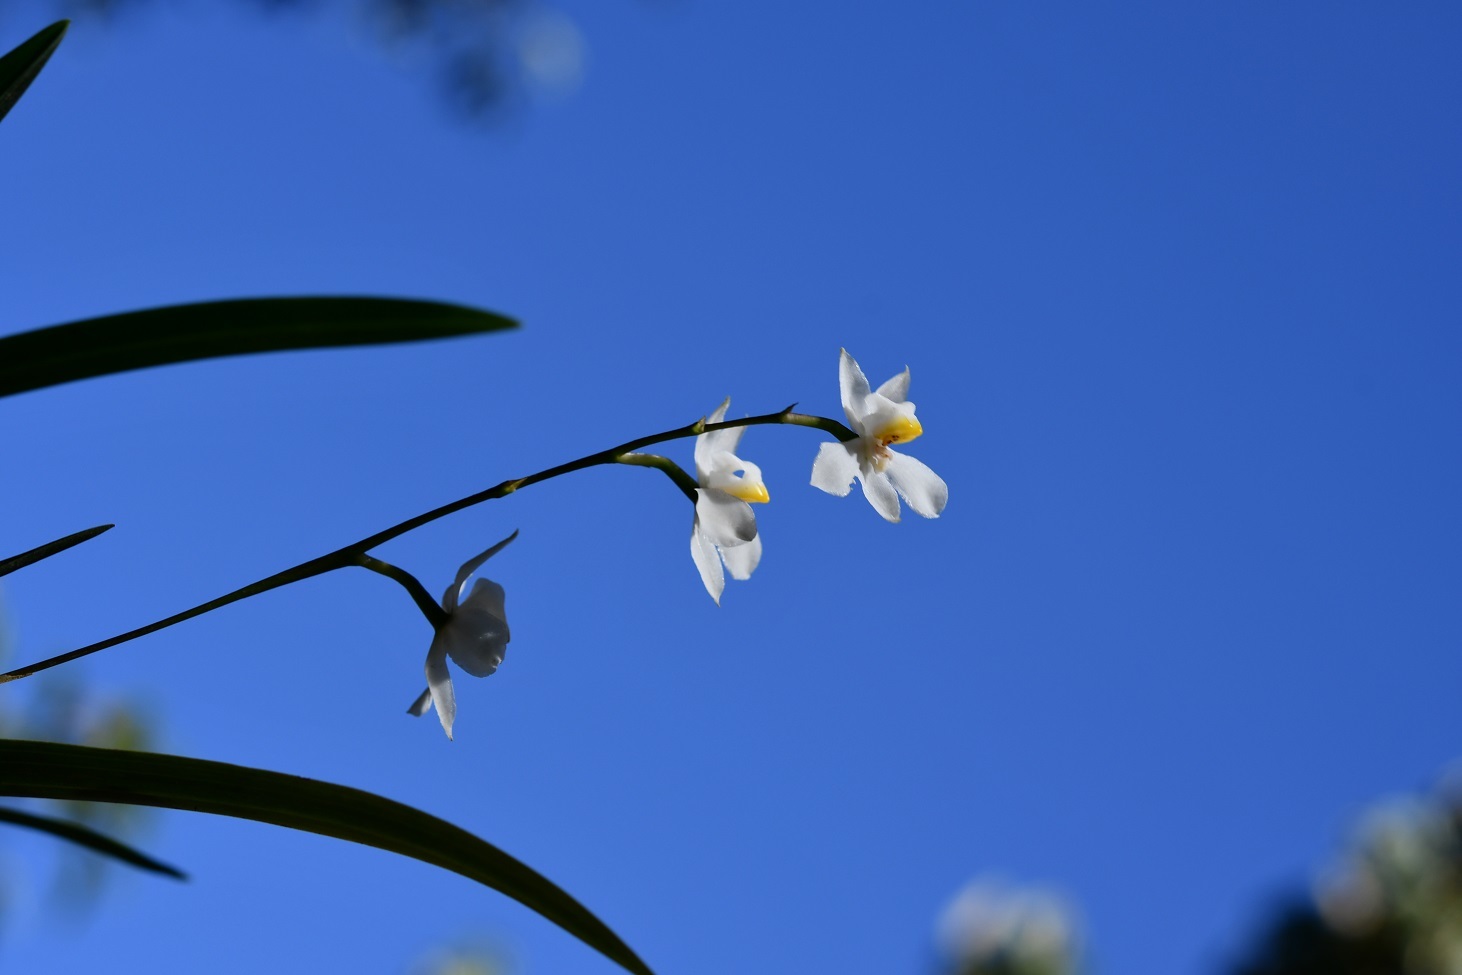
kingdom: Plantae
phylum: Tracheophyta
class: Liliopsida
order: Asparagales
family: Orchidaceae
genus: Cuitlauzina
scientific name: Cuitlauzina pulchella
